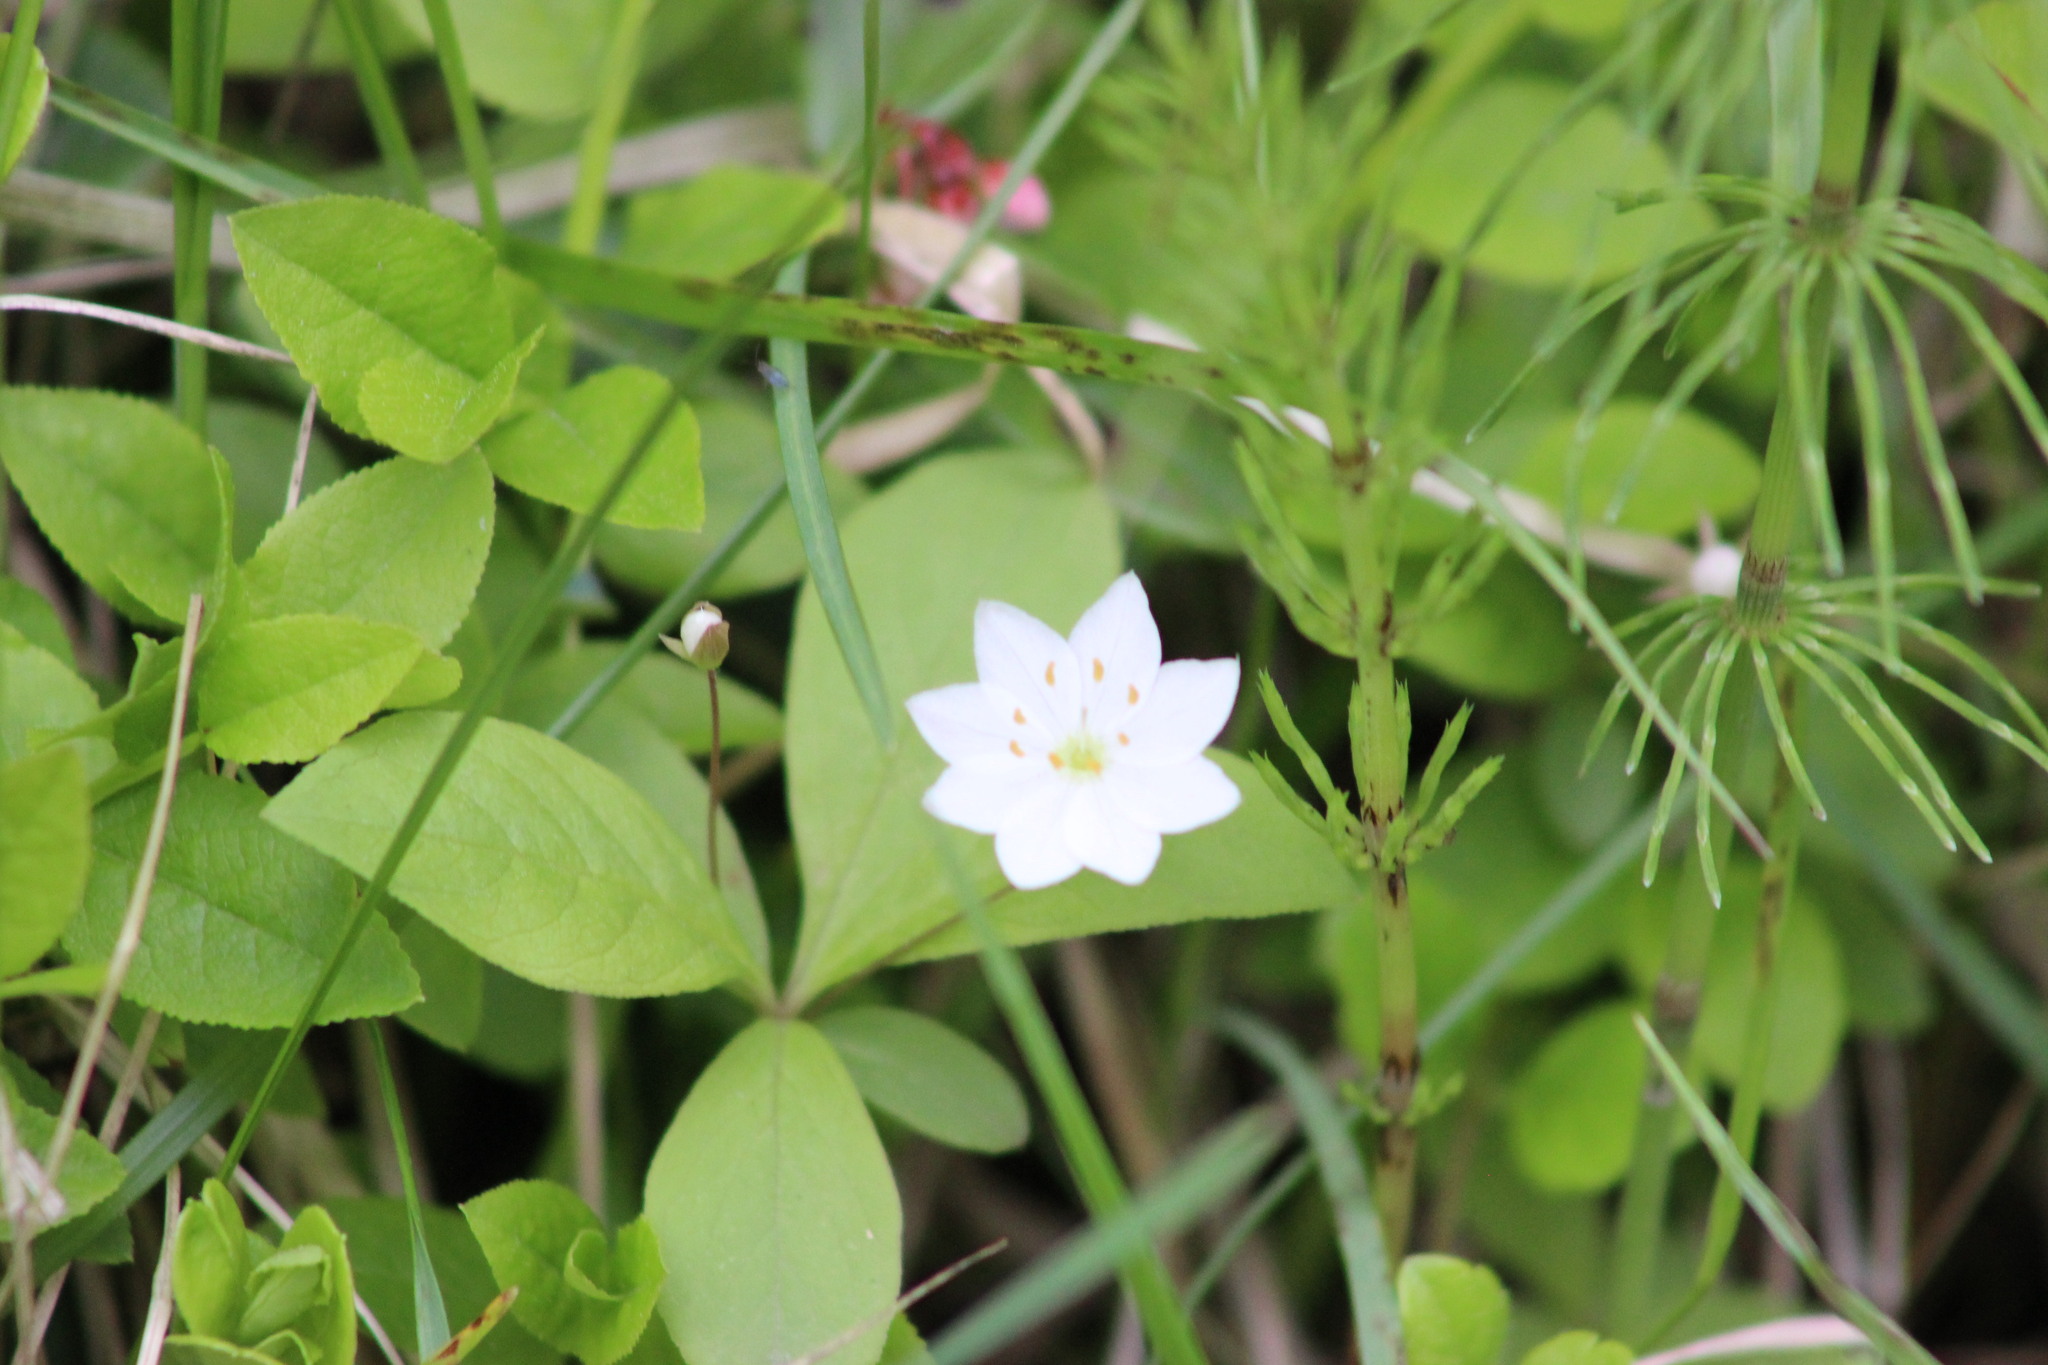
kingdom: Plantae
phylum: Tracheophyta
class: Magnoliopsida
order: Ericales
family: Primulaceae
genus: Lysimachia
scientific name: Lysimachia europaea
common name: Arctic starflower
